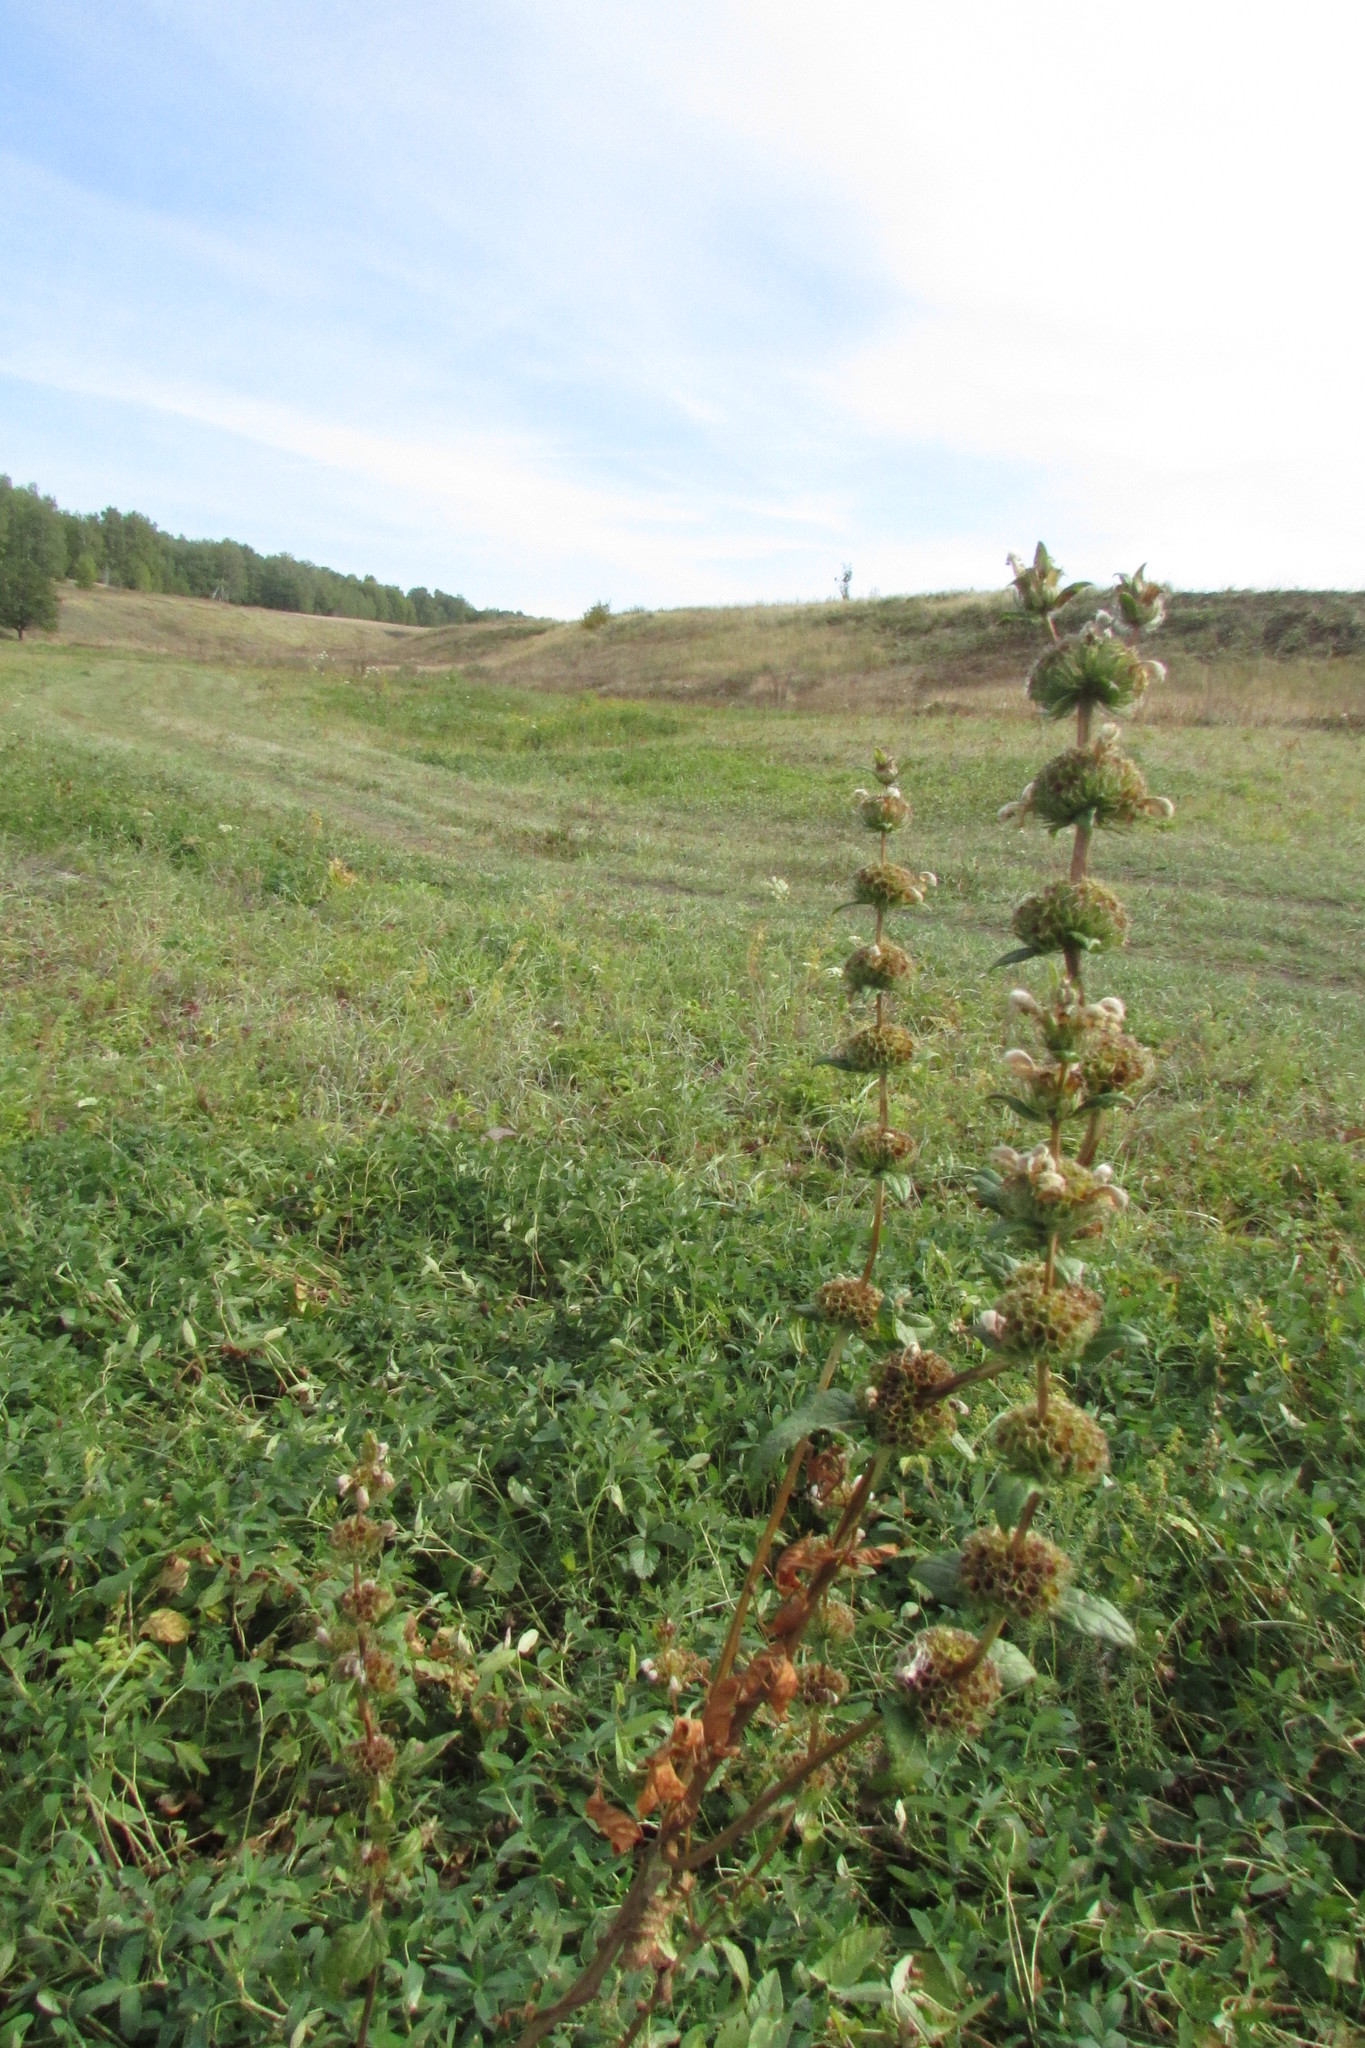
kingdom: Plantae
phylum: Tracheophyta
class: Magnoliopsida
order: Lamiales
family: Lamiaceae
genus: Phlomoides
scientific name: Phlomoides tuberosa
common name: Tuberous jerusalem sage
